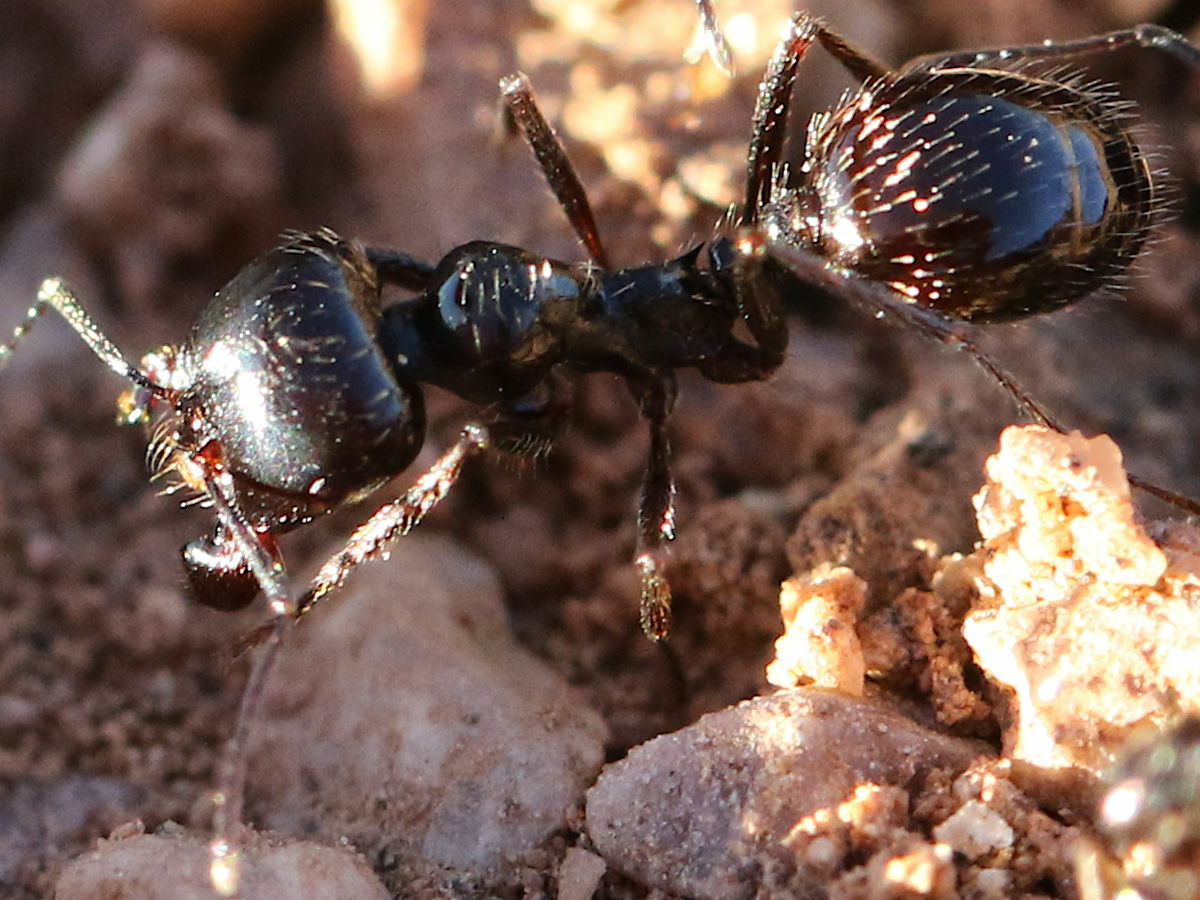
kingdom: Animalia
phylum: Arthropoda
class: Insecta
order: Hymenoptera
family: Formicidae
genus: Messor
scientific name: Messor pergandei
